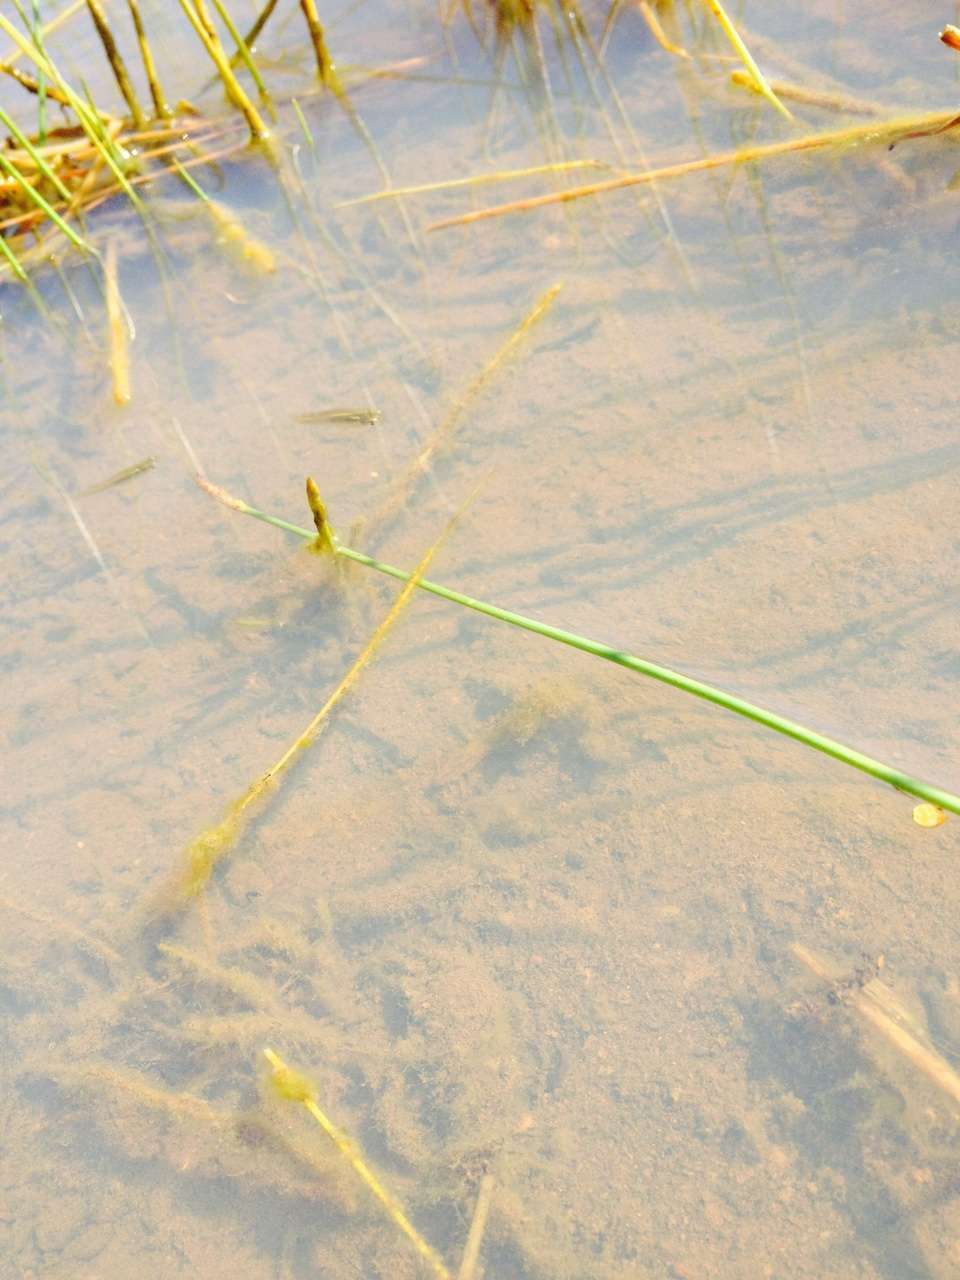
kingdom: Animalia
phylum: Chordata
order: Cyprinodontiformes
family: Poeciliidae
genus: Gambusia
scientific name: Gambusia holbrooki
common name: Eastern mosquitofish
